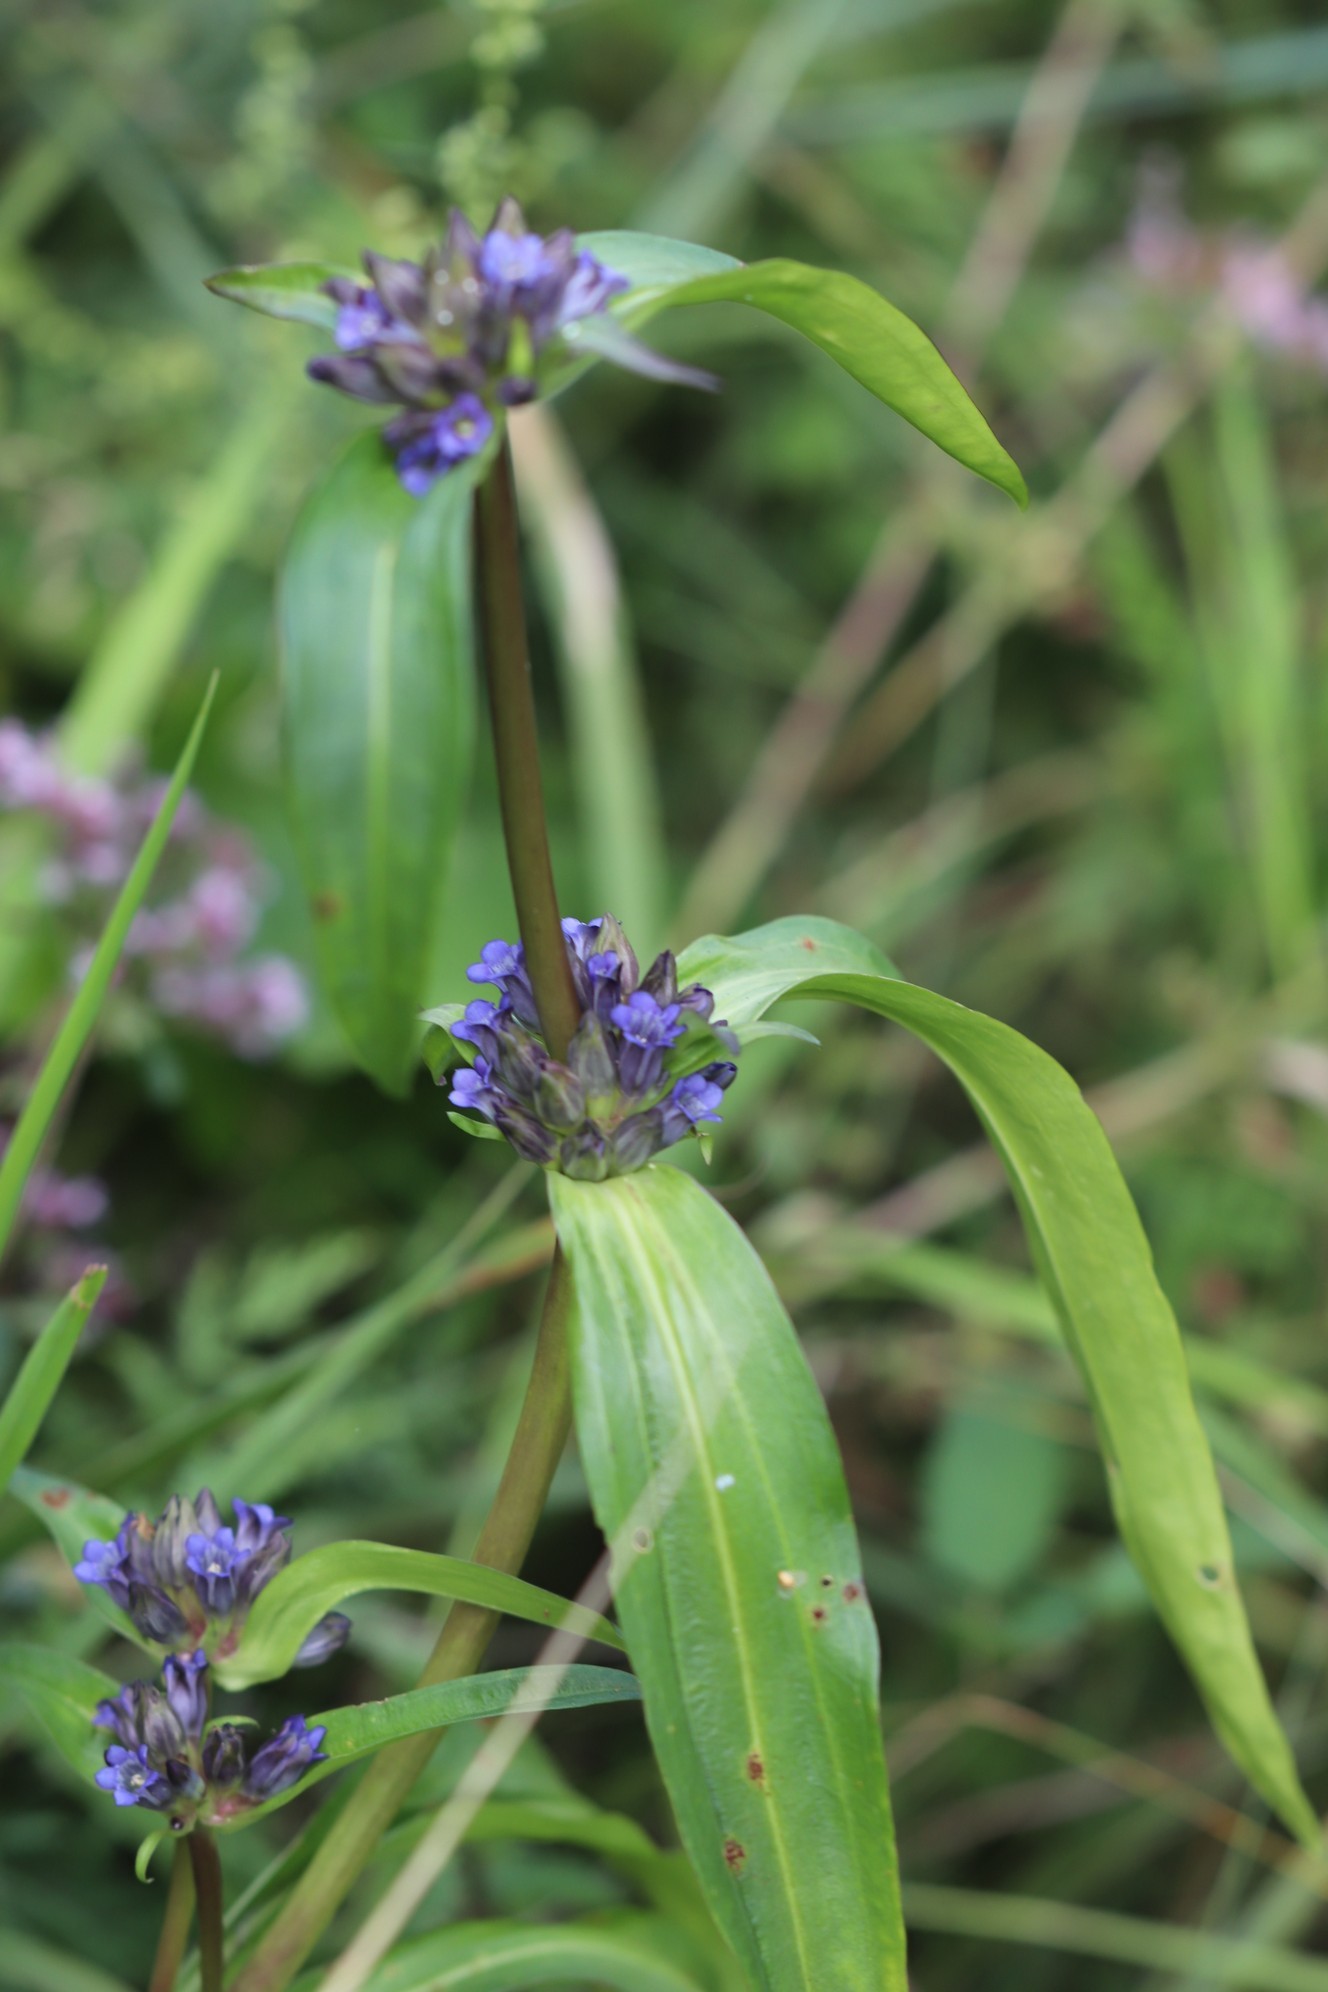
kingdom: Plantae
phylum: Tracheophyta
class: Magnoliopsida
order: Gentianales
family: Gentianaceae
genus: Gentiana
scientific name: Gentiana macrophylla
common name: Large-leaf gentian
